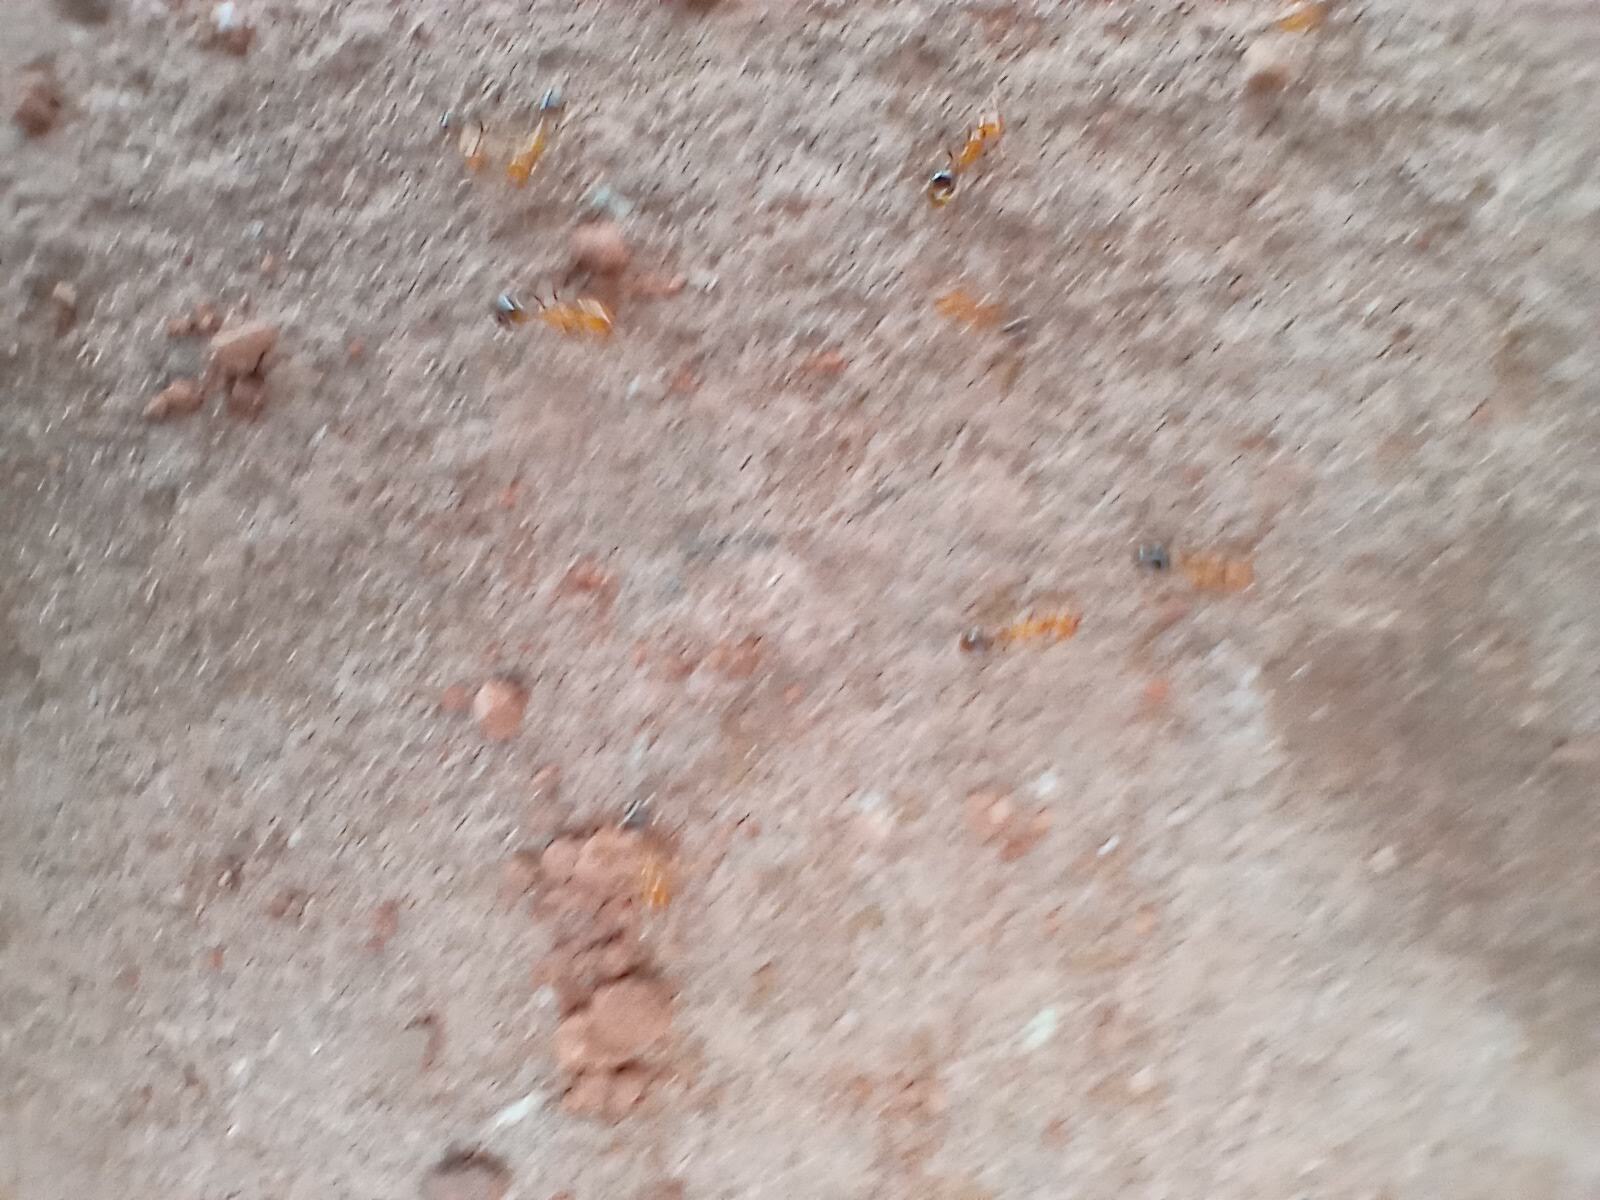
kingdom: Animalia
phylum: Arthropoda
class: Insecta
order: Hymenoptera
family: Formicidae
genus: Solenopsis
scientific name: Solenopsis xyloni
